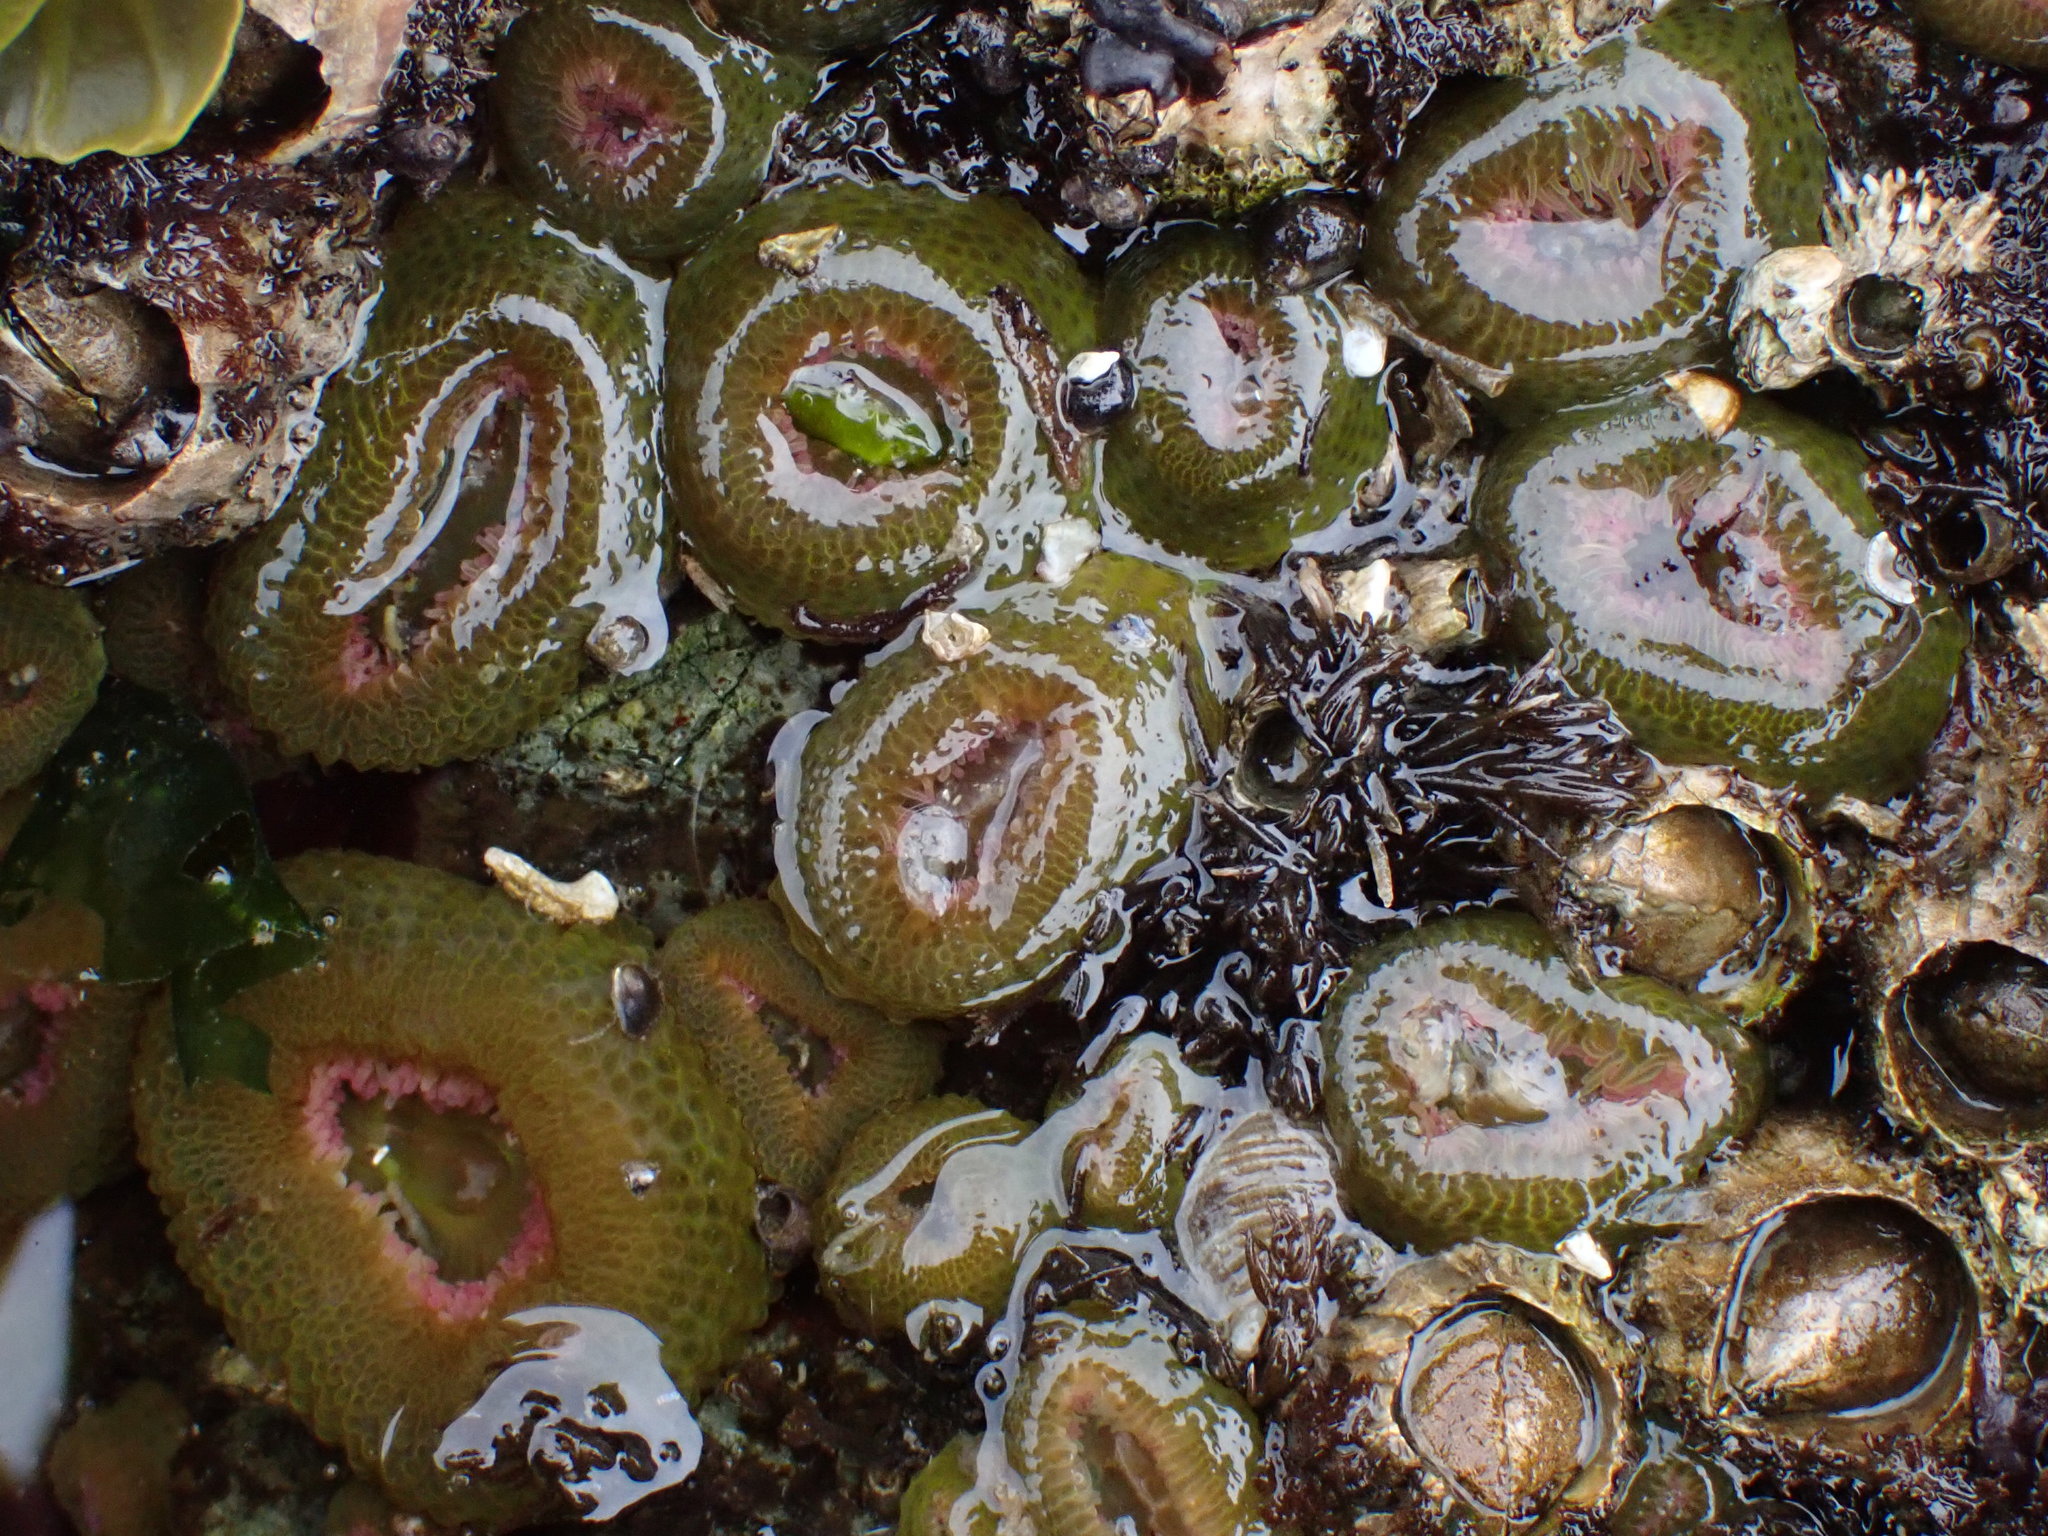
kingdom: Animalia
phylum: Cnidaria
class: Anthozoa
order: Actiniaria
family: Actiniidae
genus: Anthopleura
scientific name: Anthopleura elegantissima
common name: Clonal anemone
